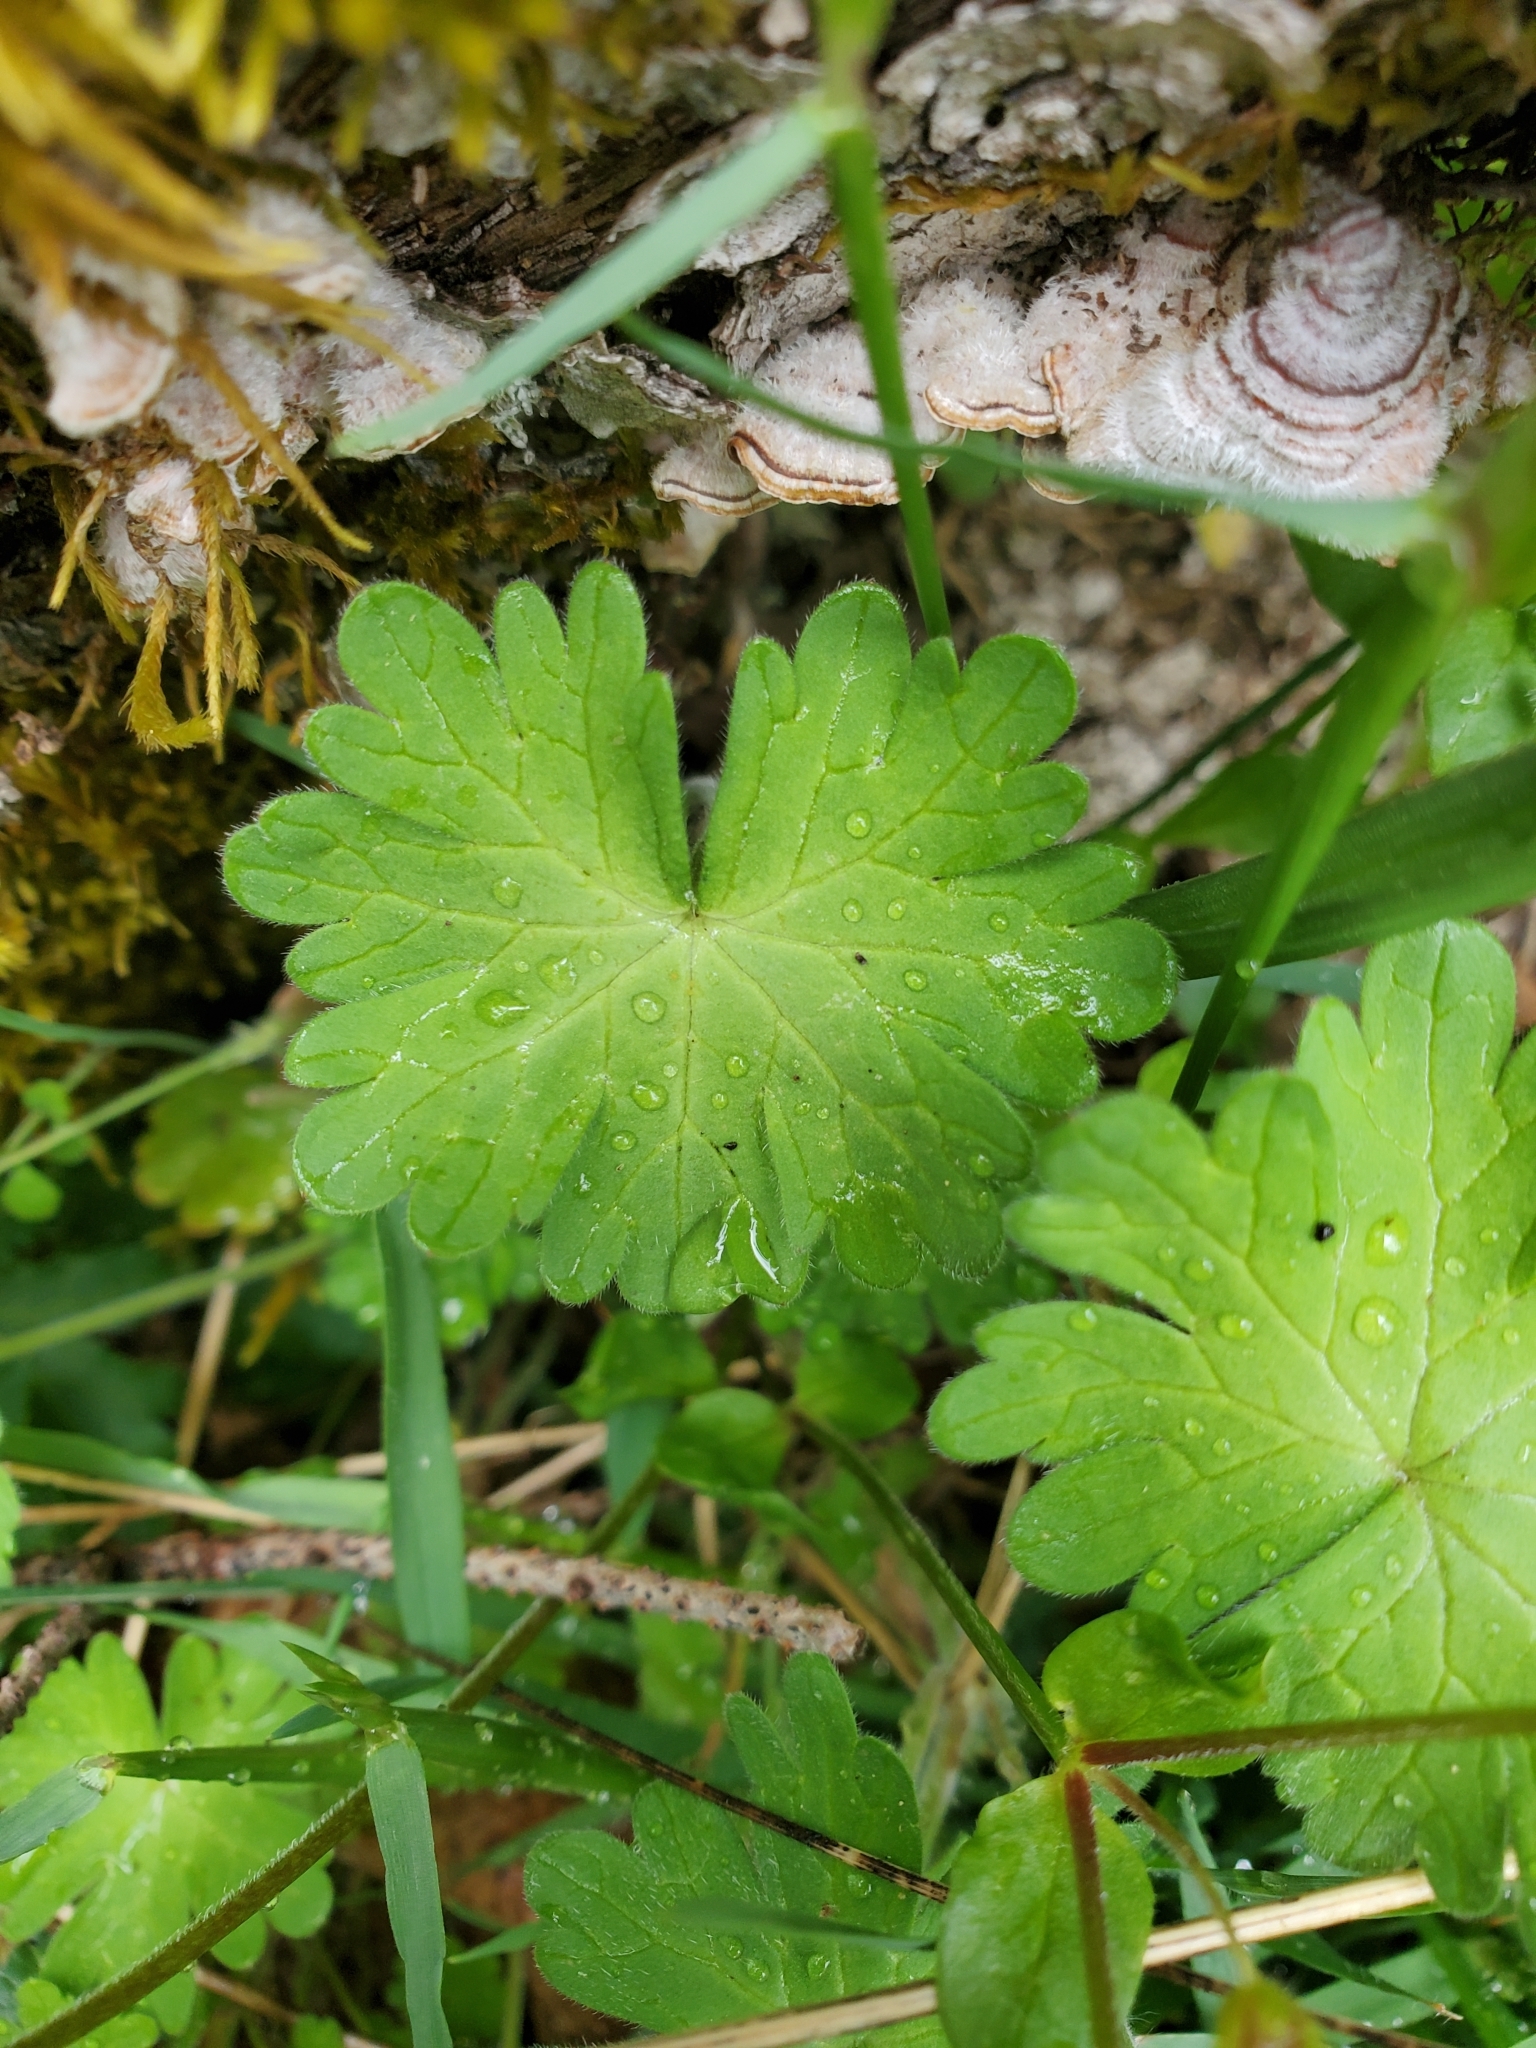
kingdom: Plantae
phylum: Tracheophyta
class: Magnoliopsida
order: Geraniales
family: Geraniaceae
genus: Geranium
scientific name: Geranium molle
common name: Dove's-foot crane's-bill
